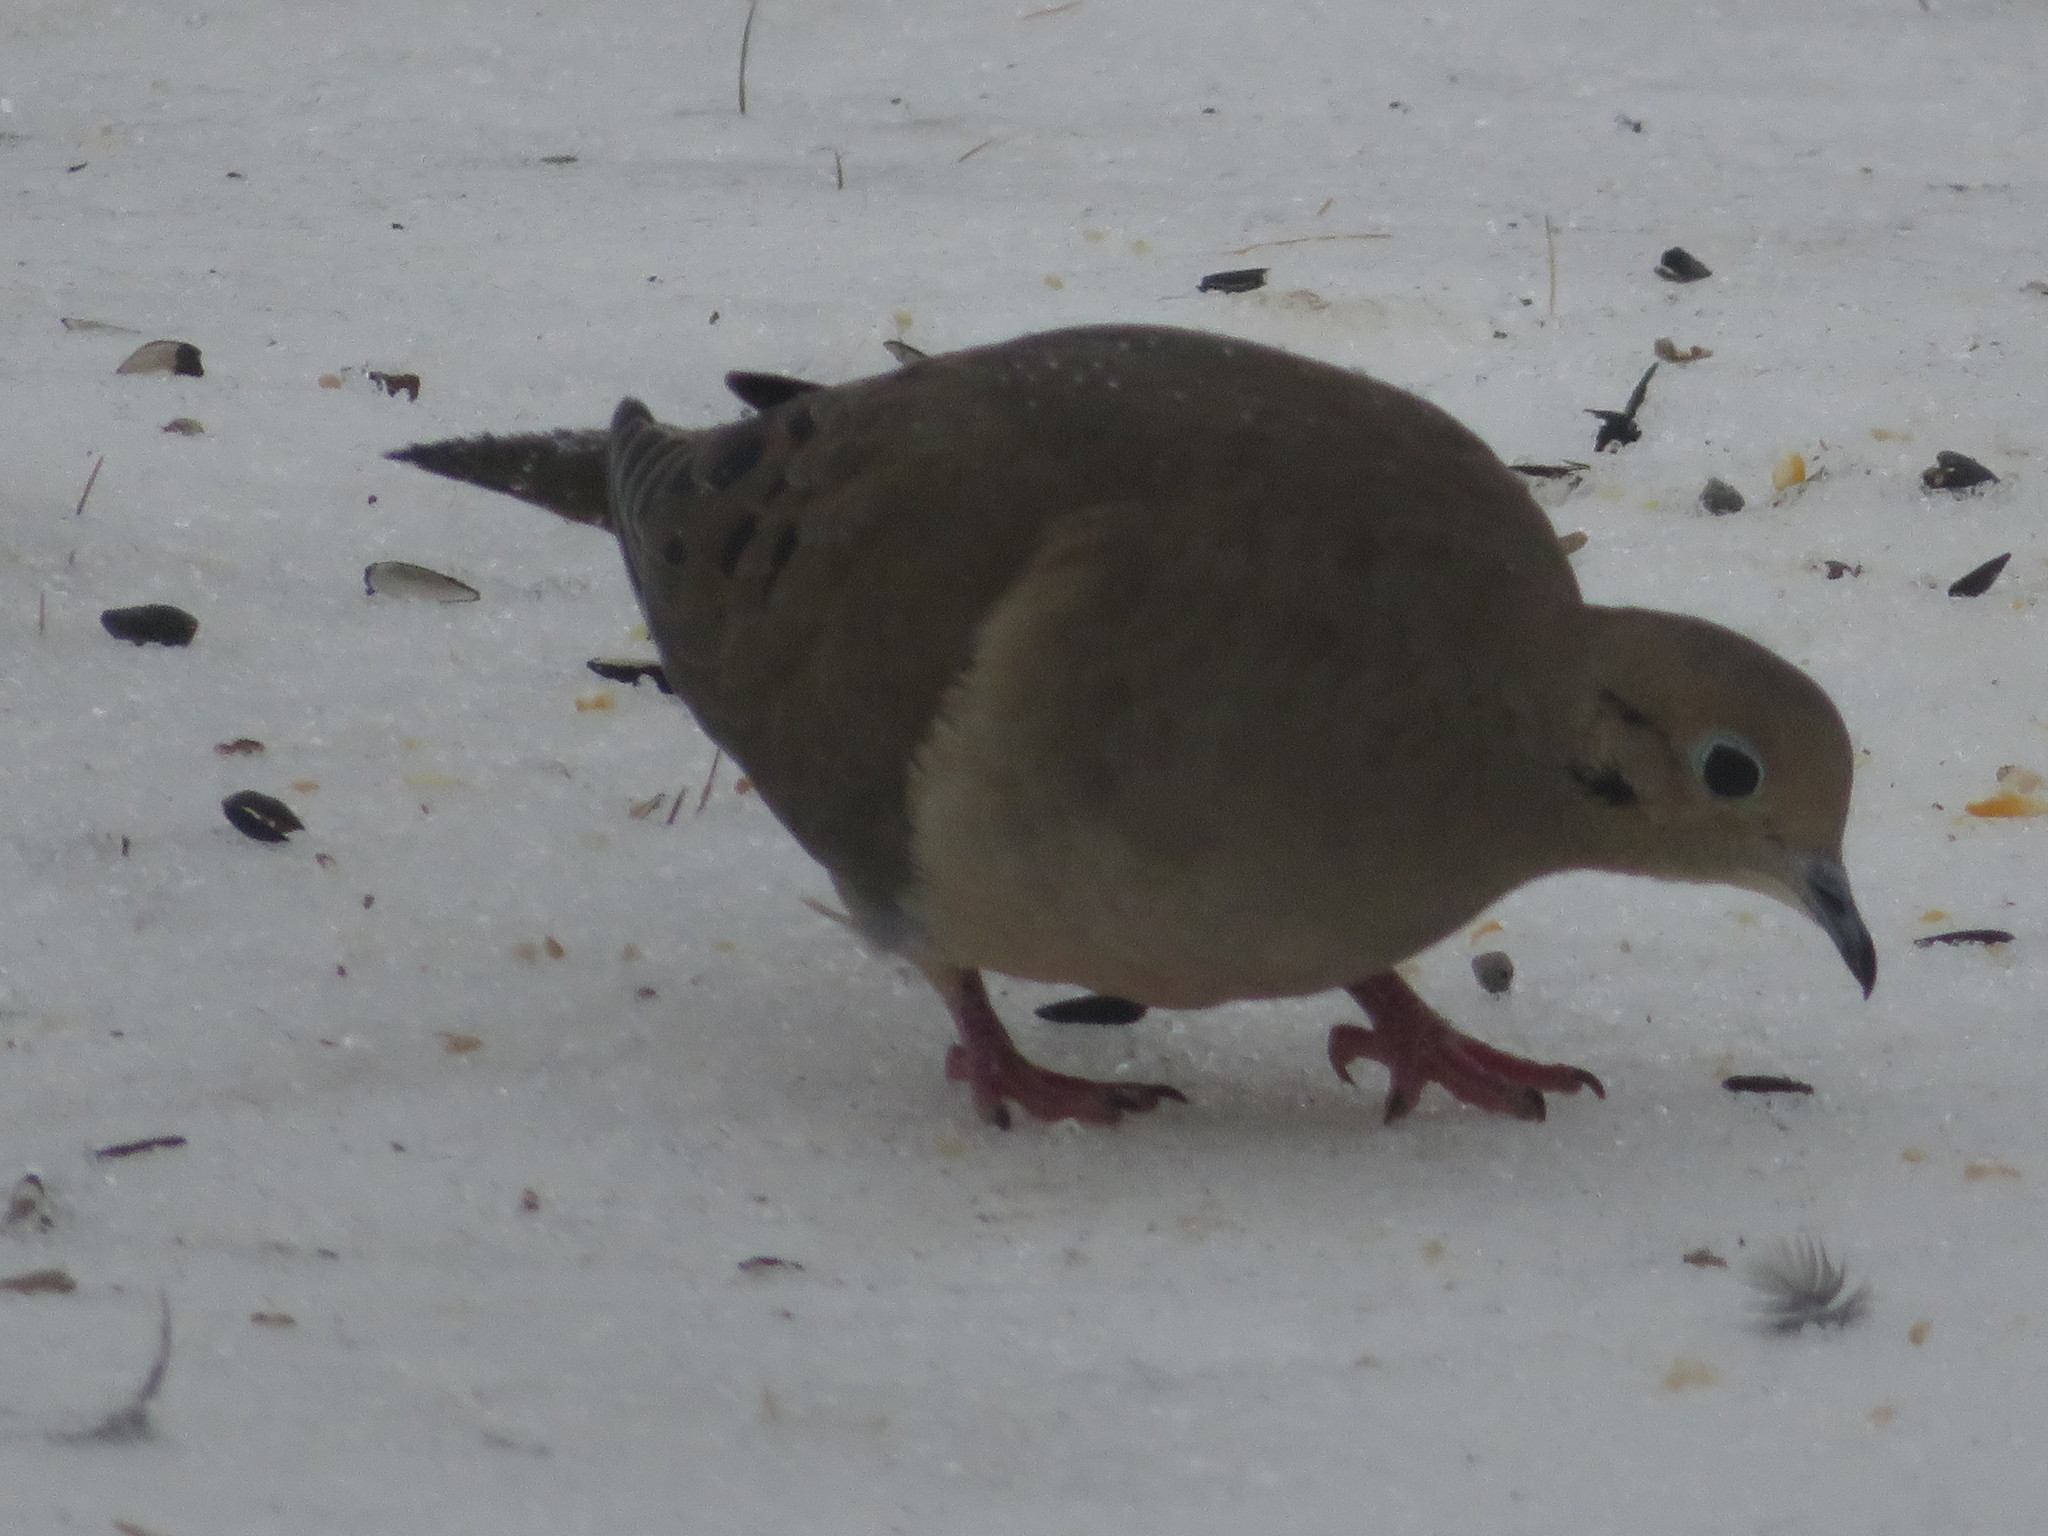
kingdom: Animalia
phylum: Chordata
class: Aves
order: Columbiformes
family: Columbidae
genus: Zenaida
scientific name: Zenaida macroura
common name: Mourning dove
